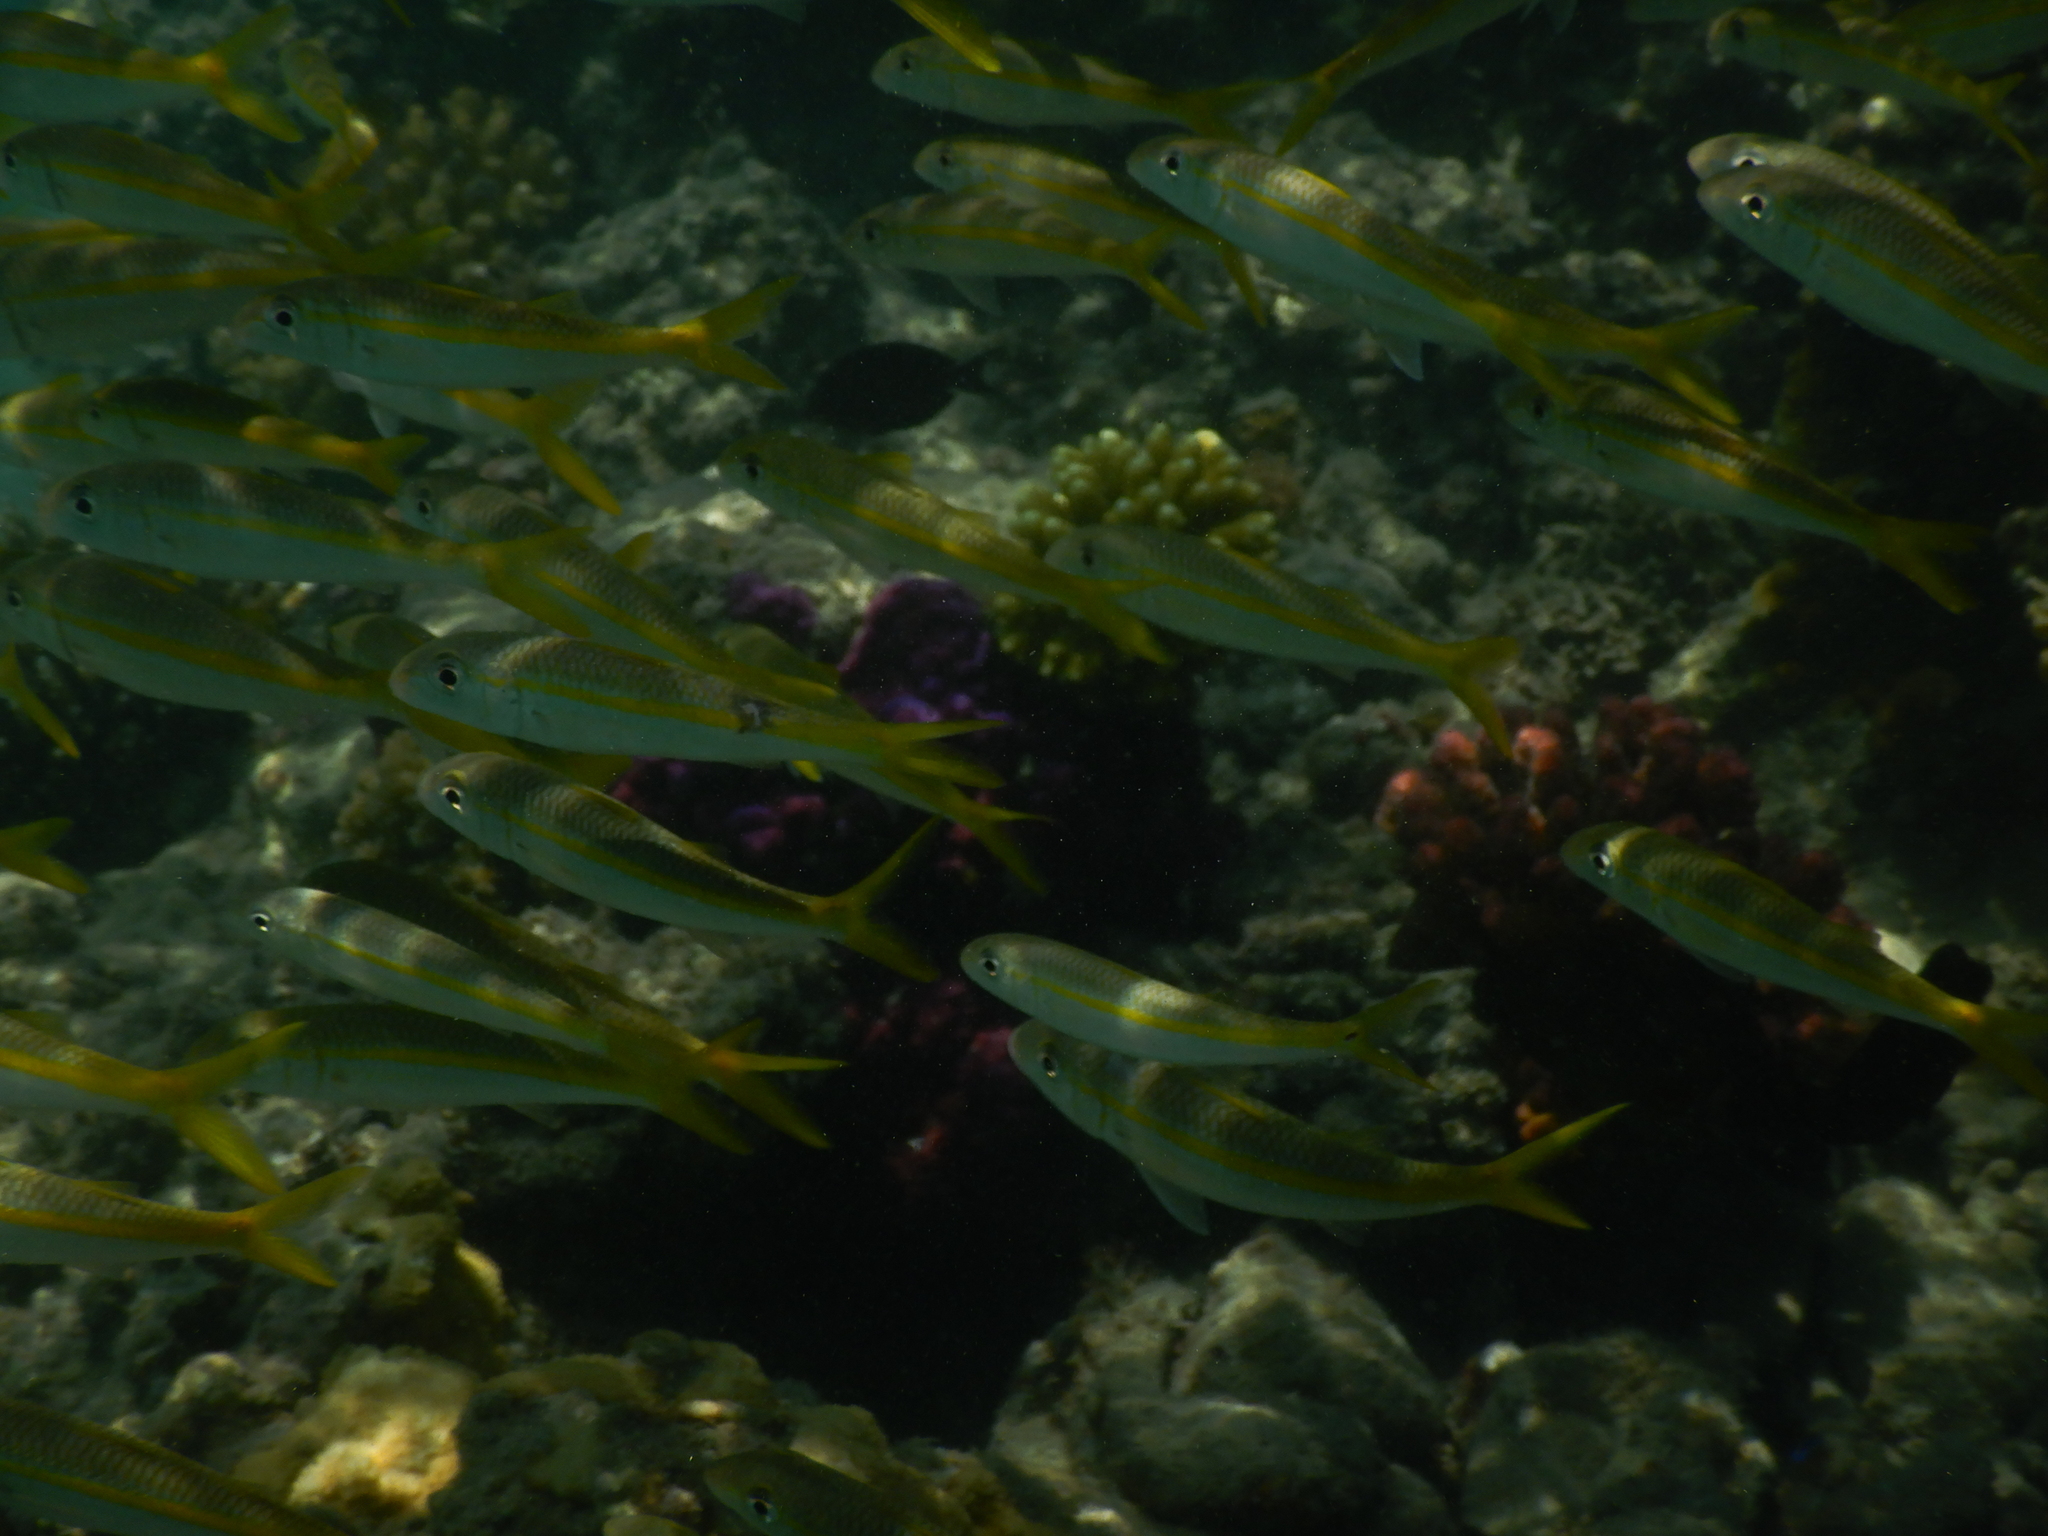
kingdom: Animalia
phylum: Chordata
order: Perciformes
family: Mullidae
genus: Mulloidichthys
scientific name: Mulloidichthys vanicolensis
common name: Yellowfin goatfish
